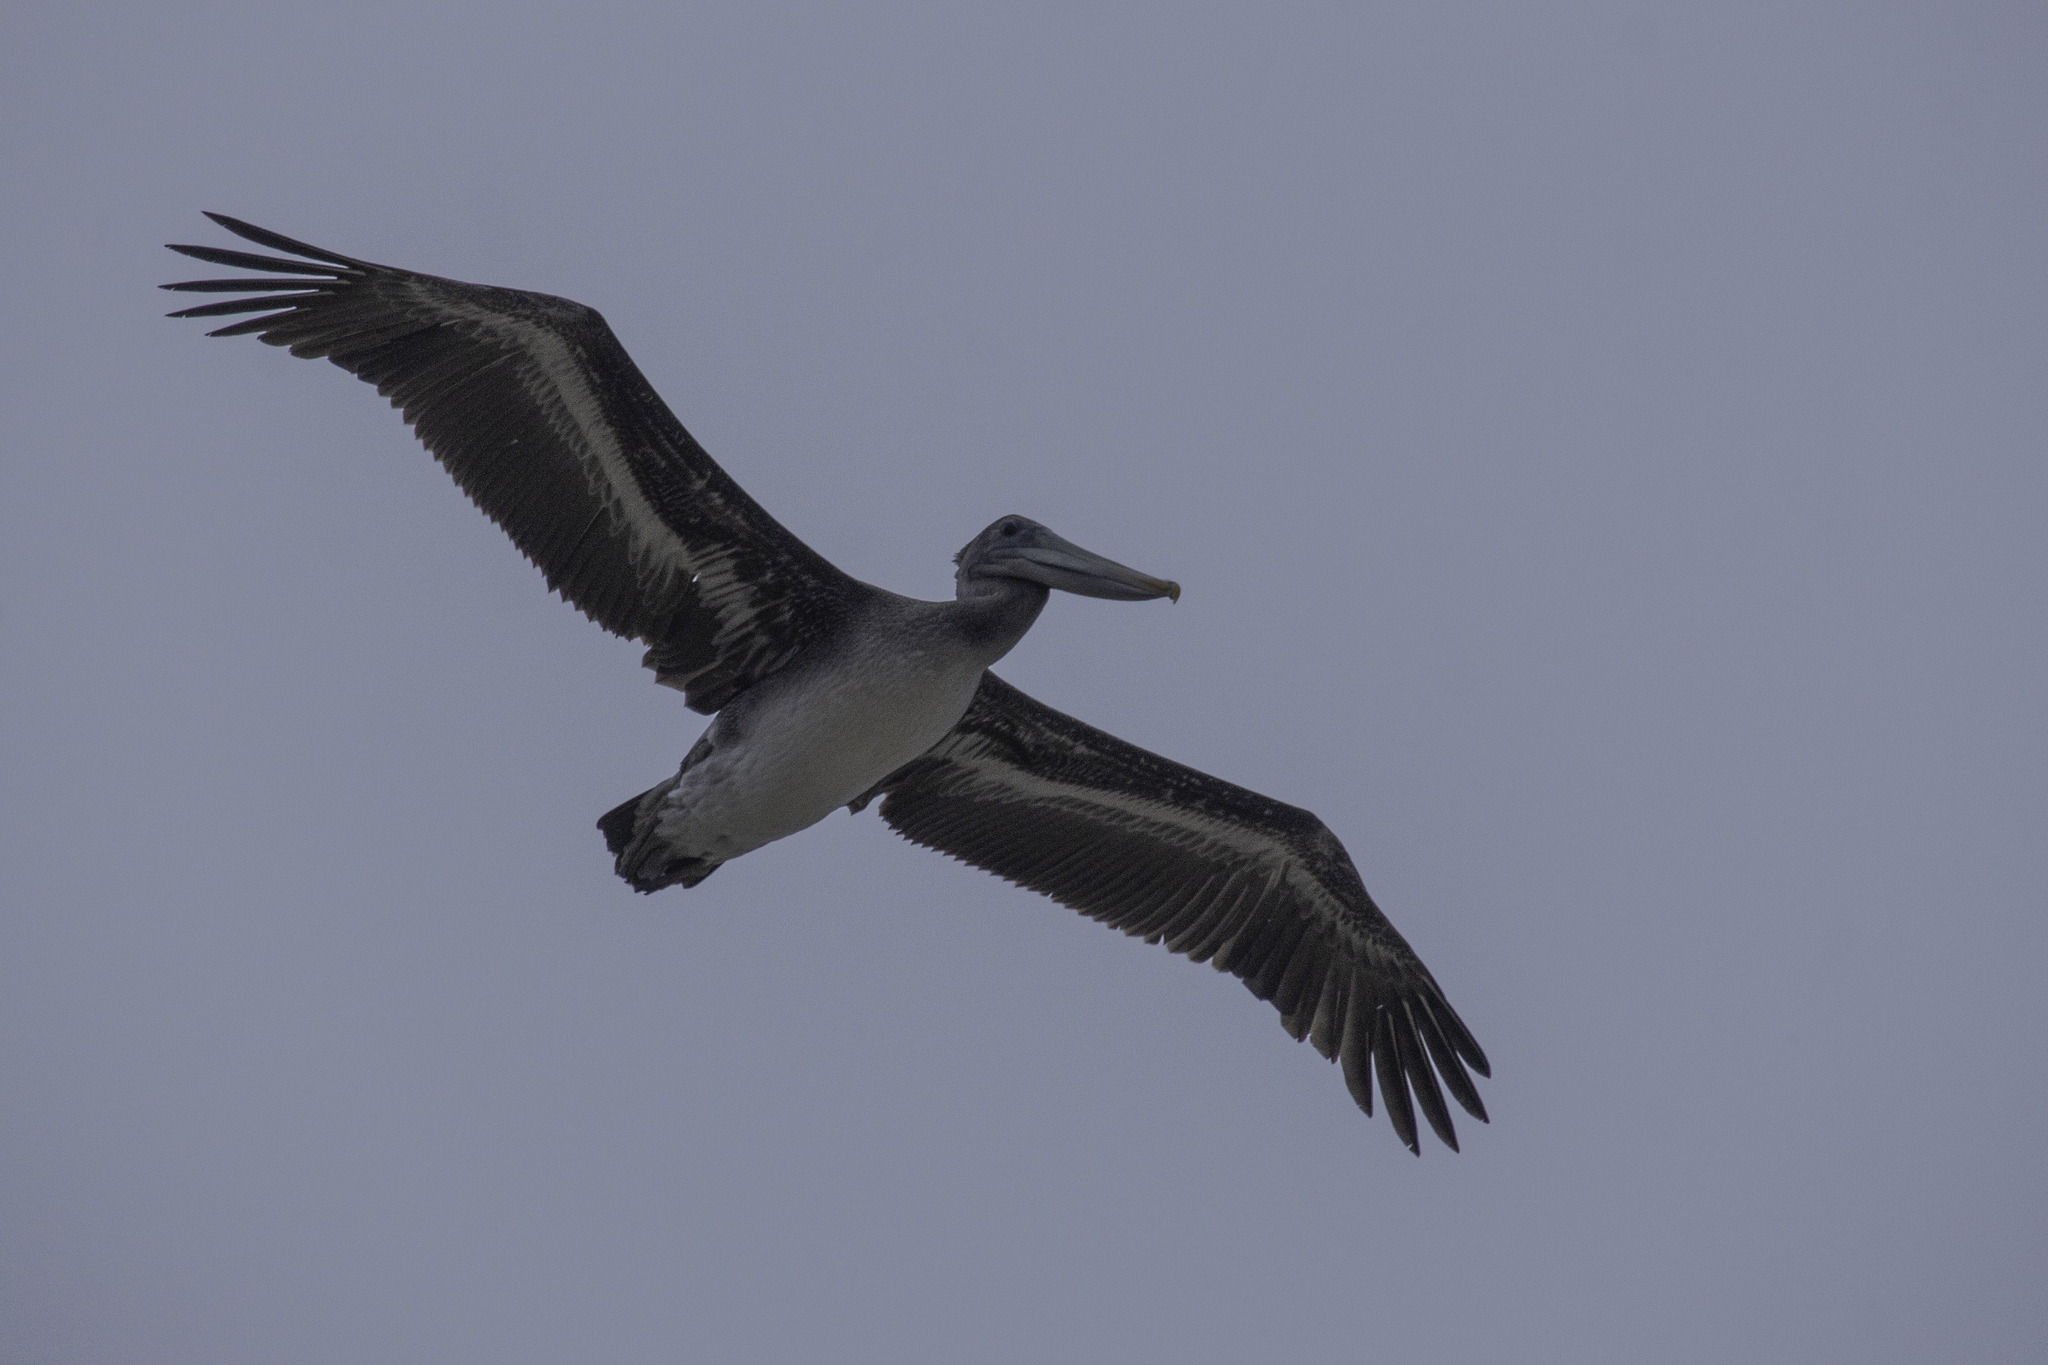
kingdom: Animalia
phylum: Chordata
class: Aves
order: Pelecaniformes
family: Pelecanidae
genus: Pelecanus
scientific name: Pelecanus occidentalis
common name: Brown pelican
